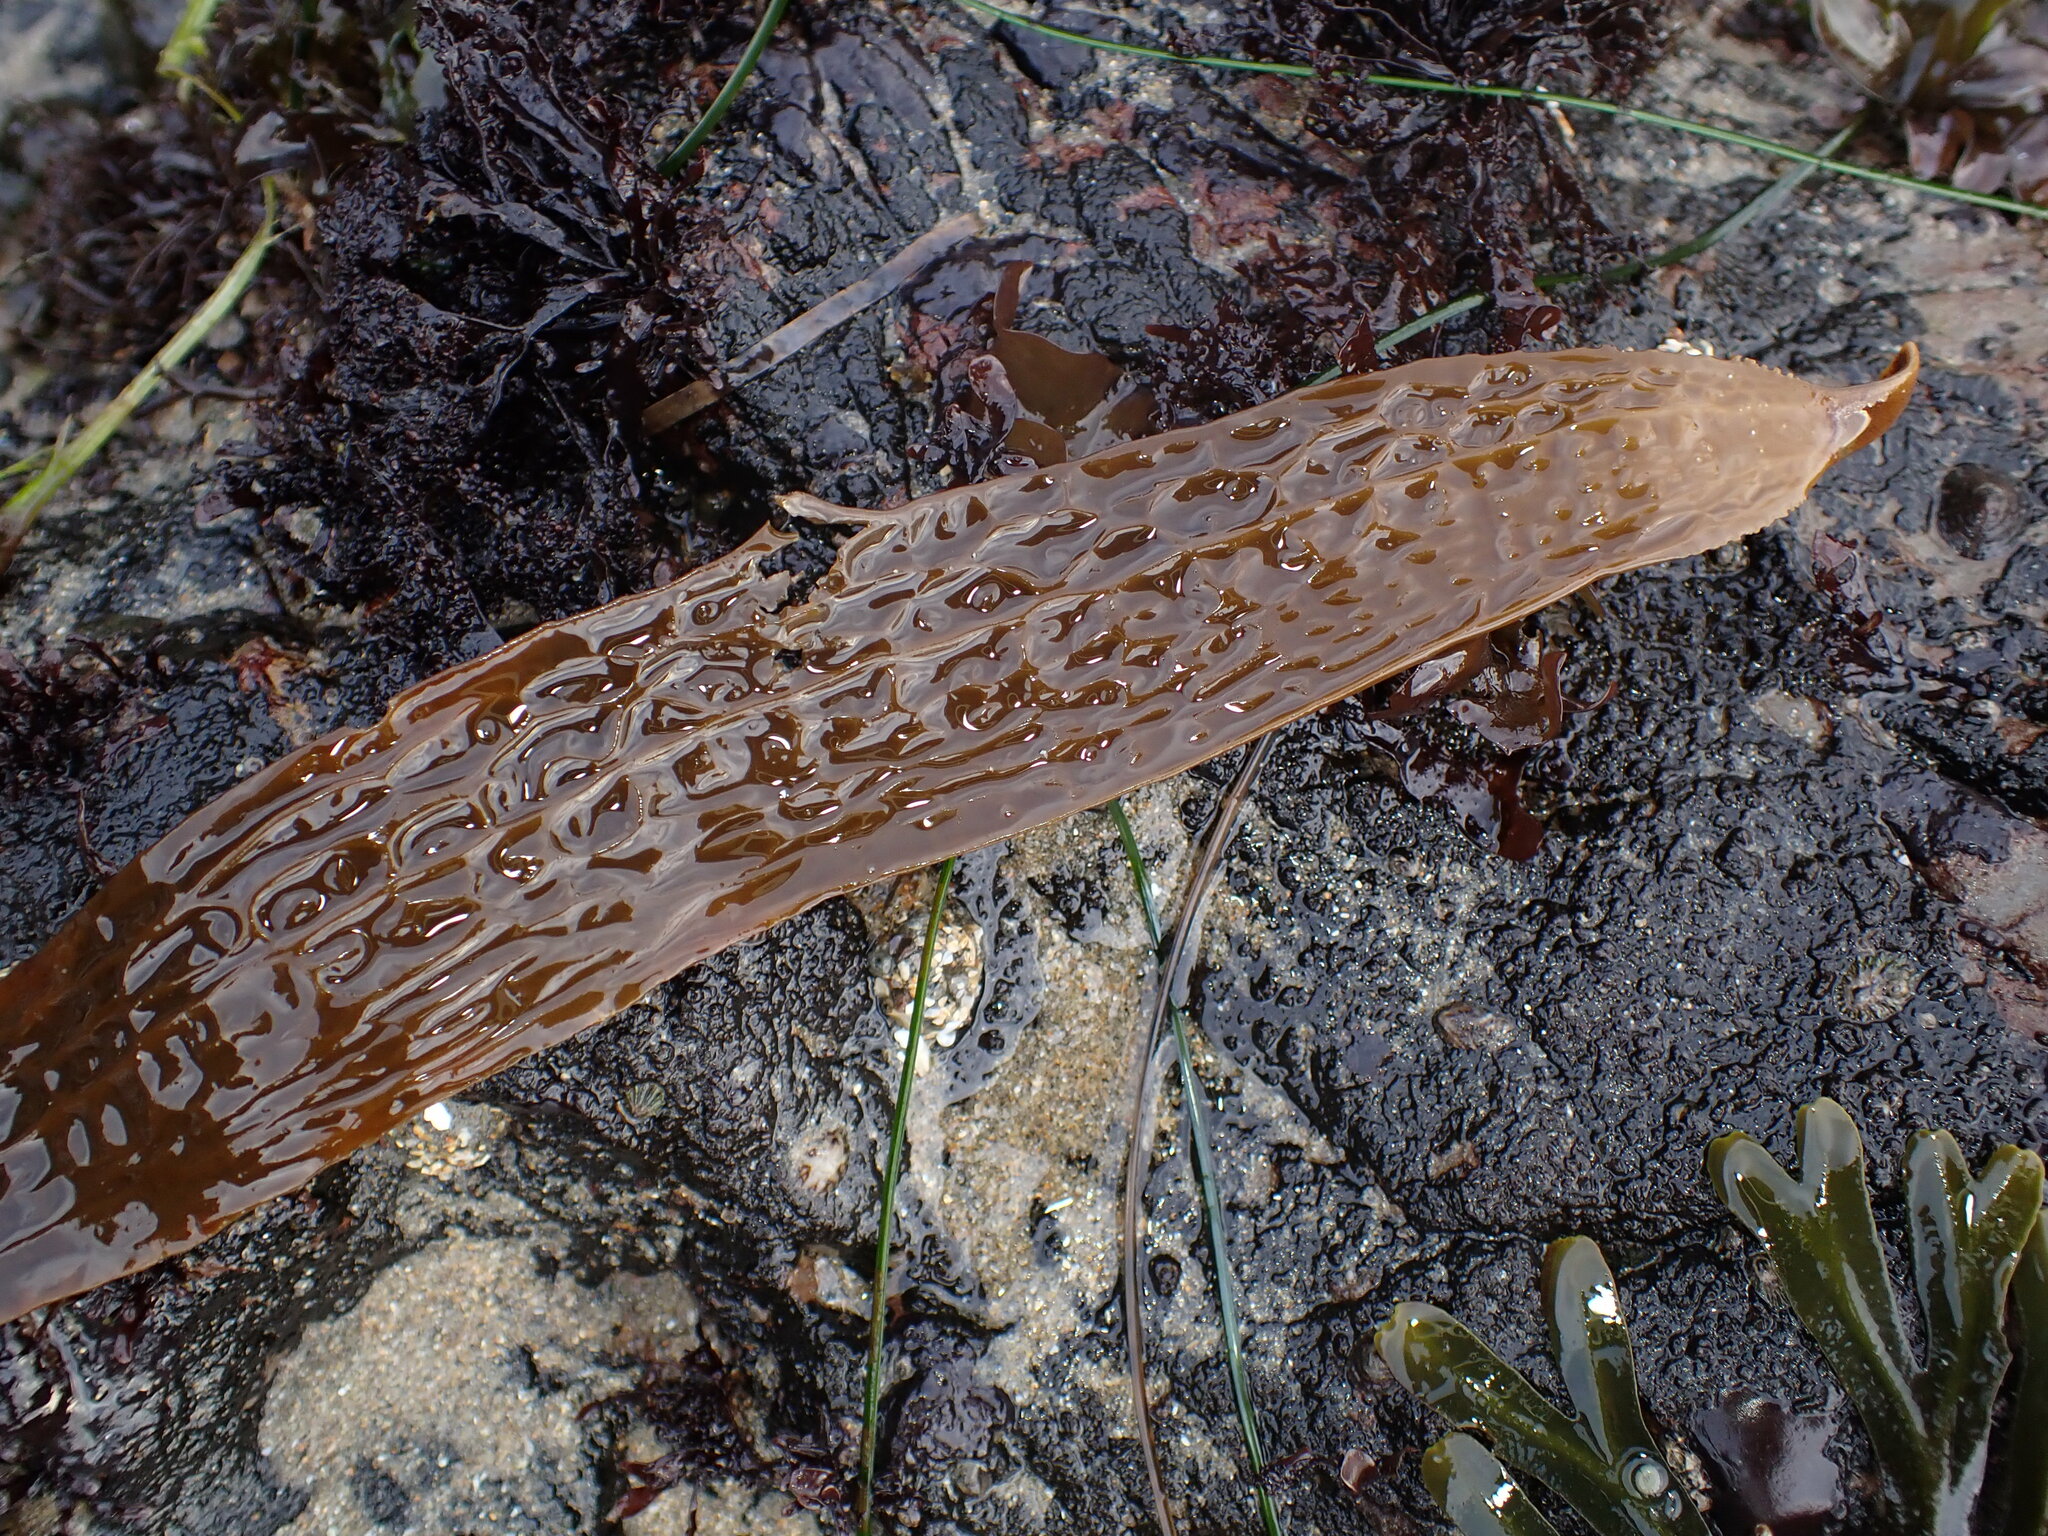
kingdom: Chromista
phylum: Ochrophyta
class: Phaeophyceae
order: Laminariales
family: Costariaceae
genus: Dictyoneurum
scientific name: Dictyoneurum californicum
